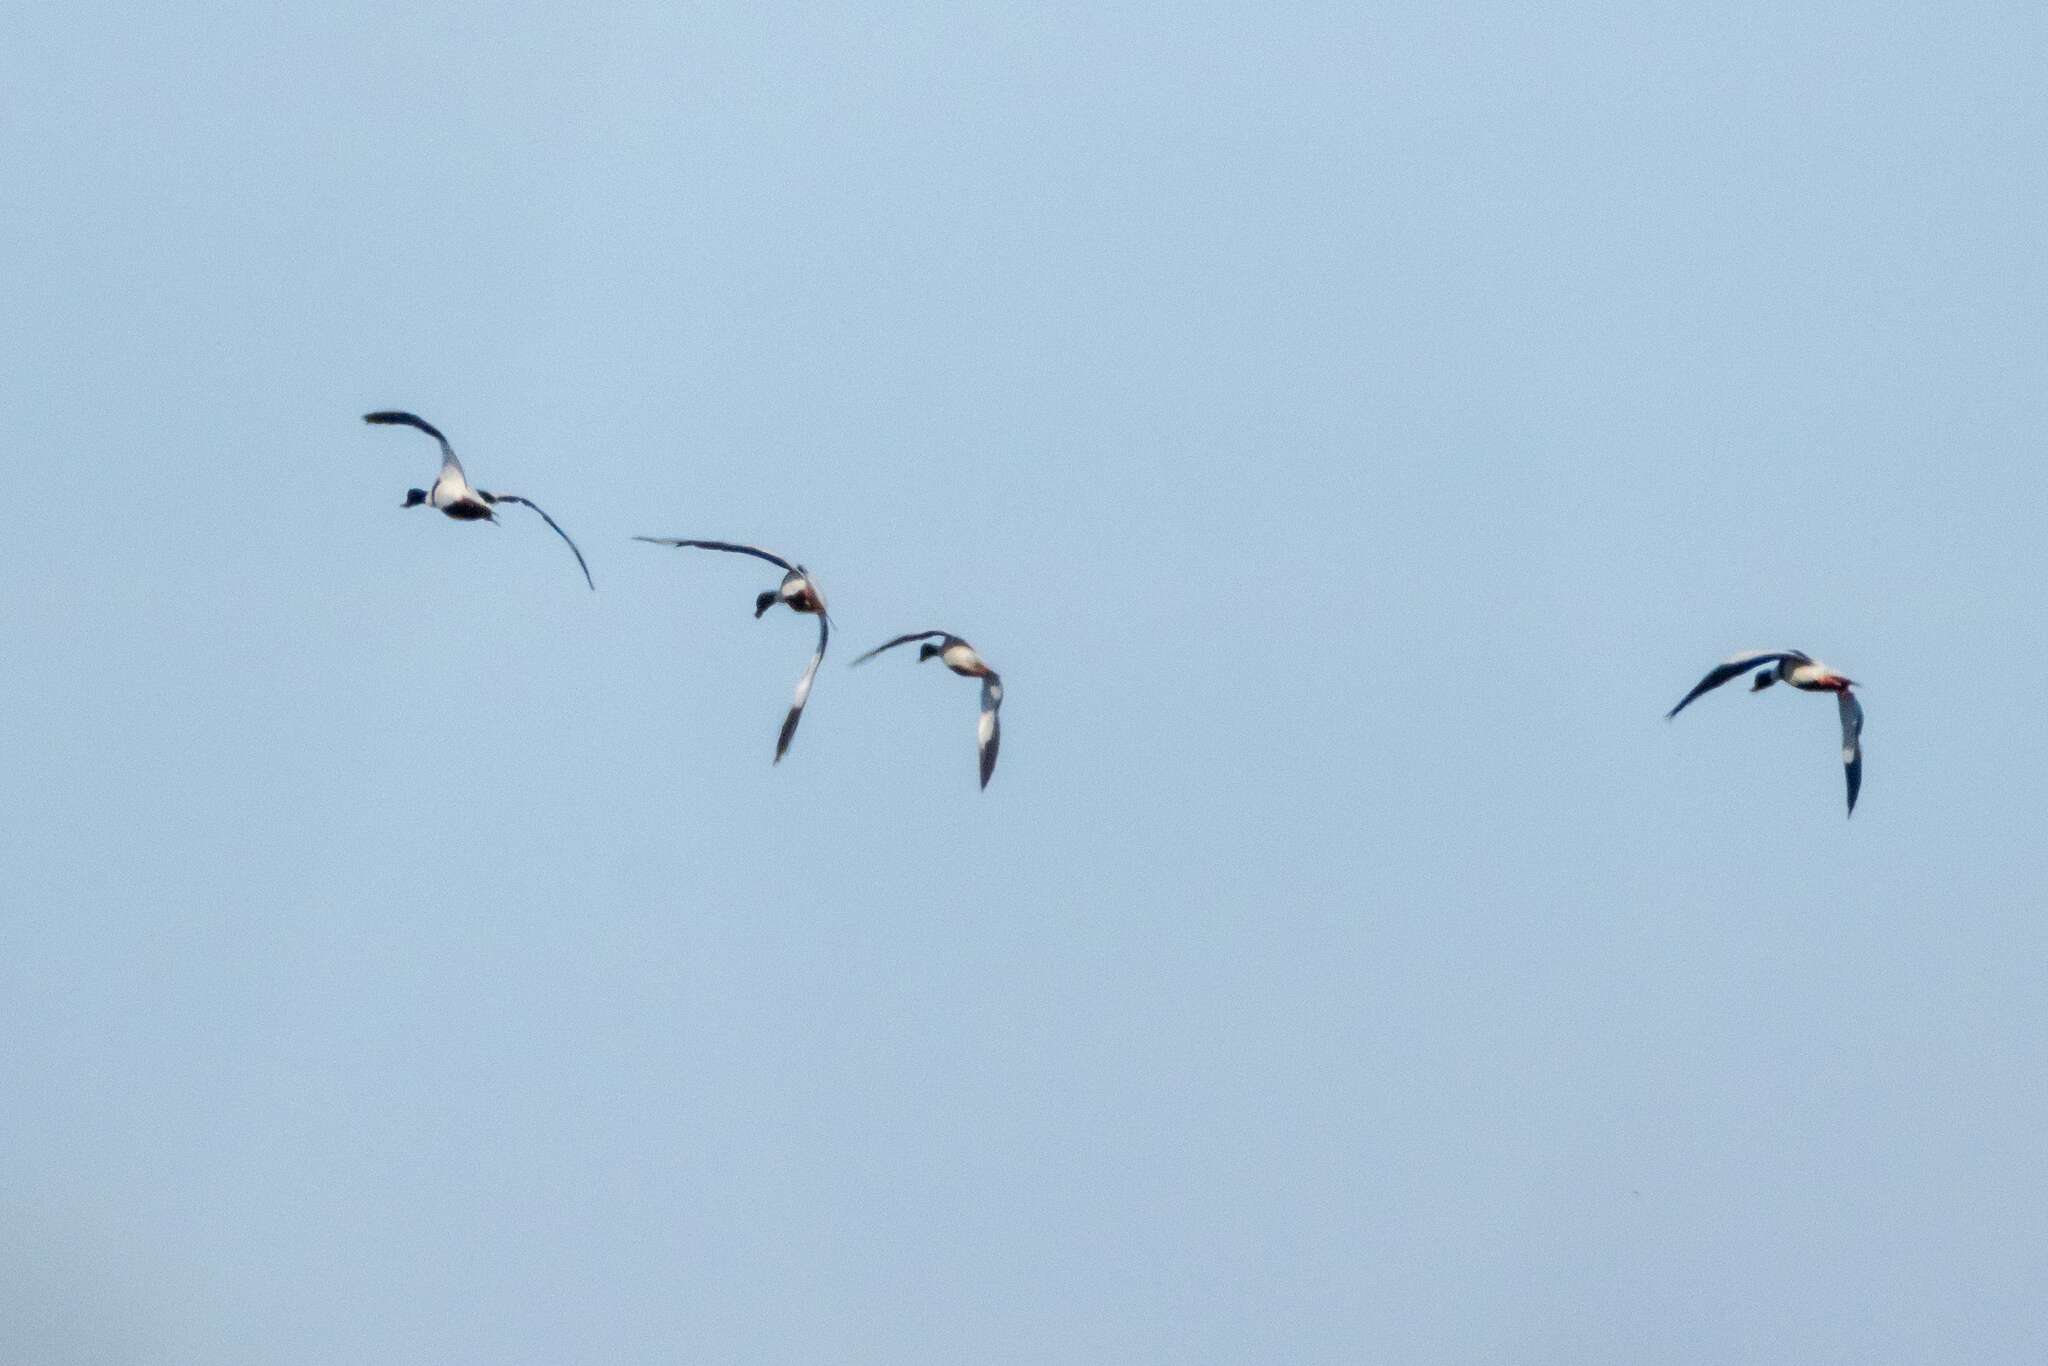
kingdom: Animalia
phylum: Chordata
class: Aves
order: Anseriformes
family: Anatidae
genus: Tadorna
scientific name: Tadorna tadorna
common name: Common shelduck
